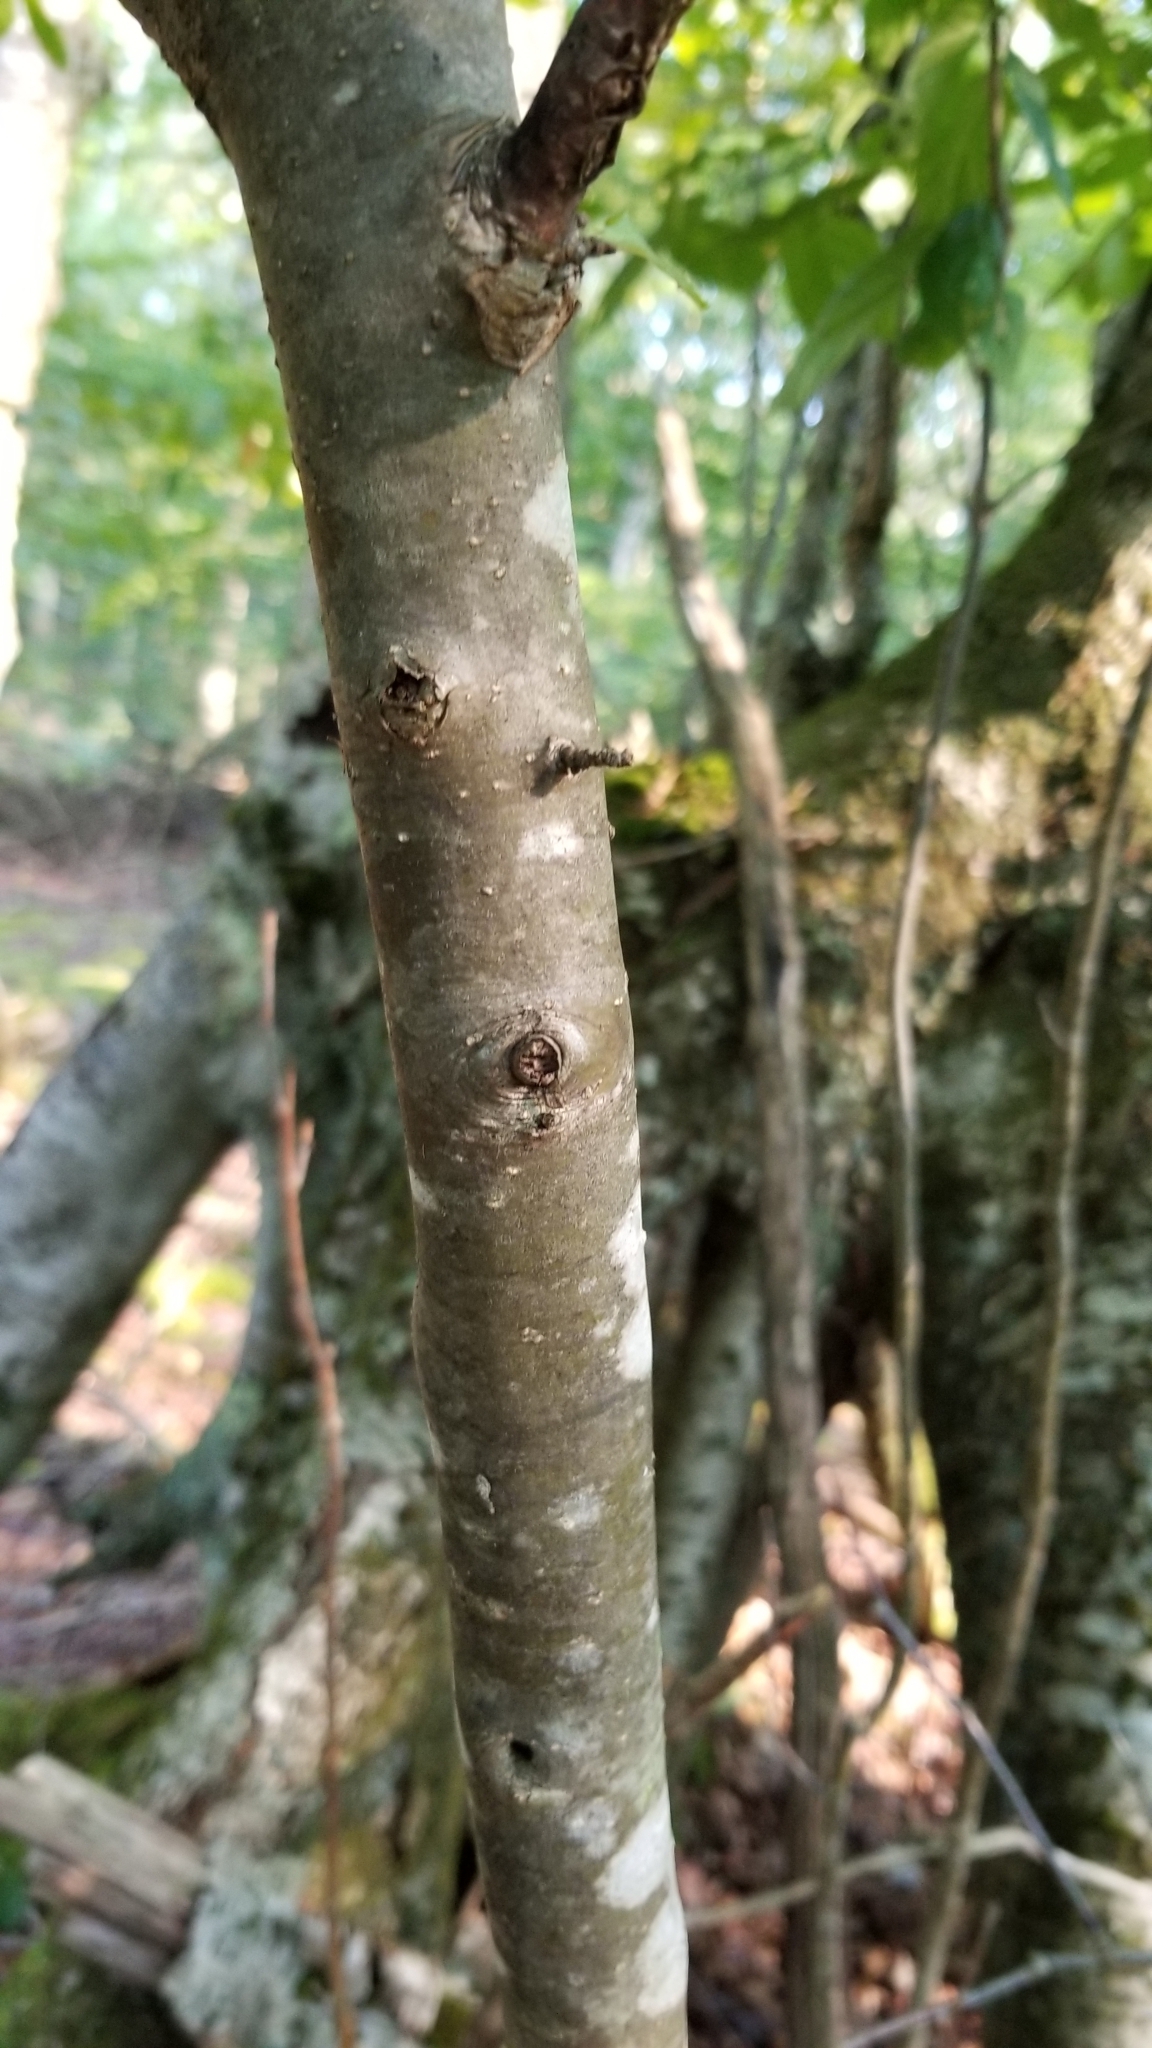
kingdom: Plantae
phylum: Tracheophyta
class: Magnoliopsida
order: Aquifoliales
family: Aquifoliaceae
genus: Ilex
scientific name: Ilex montana
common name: Mountain winterberry
